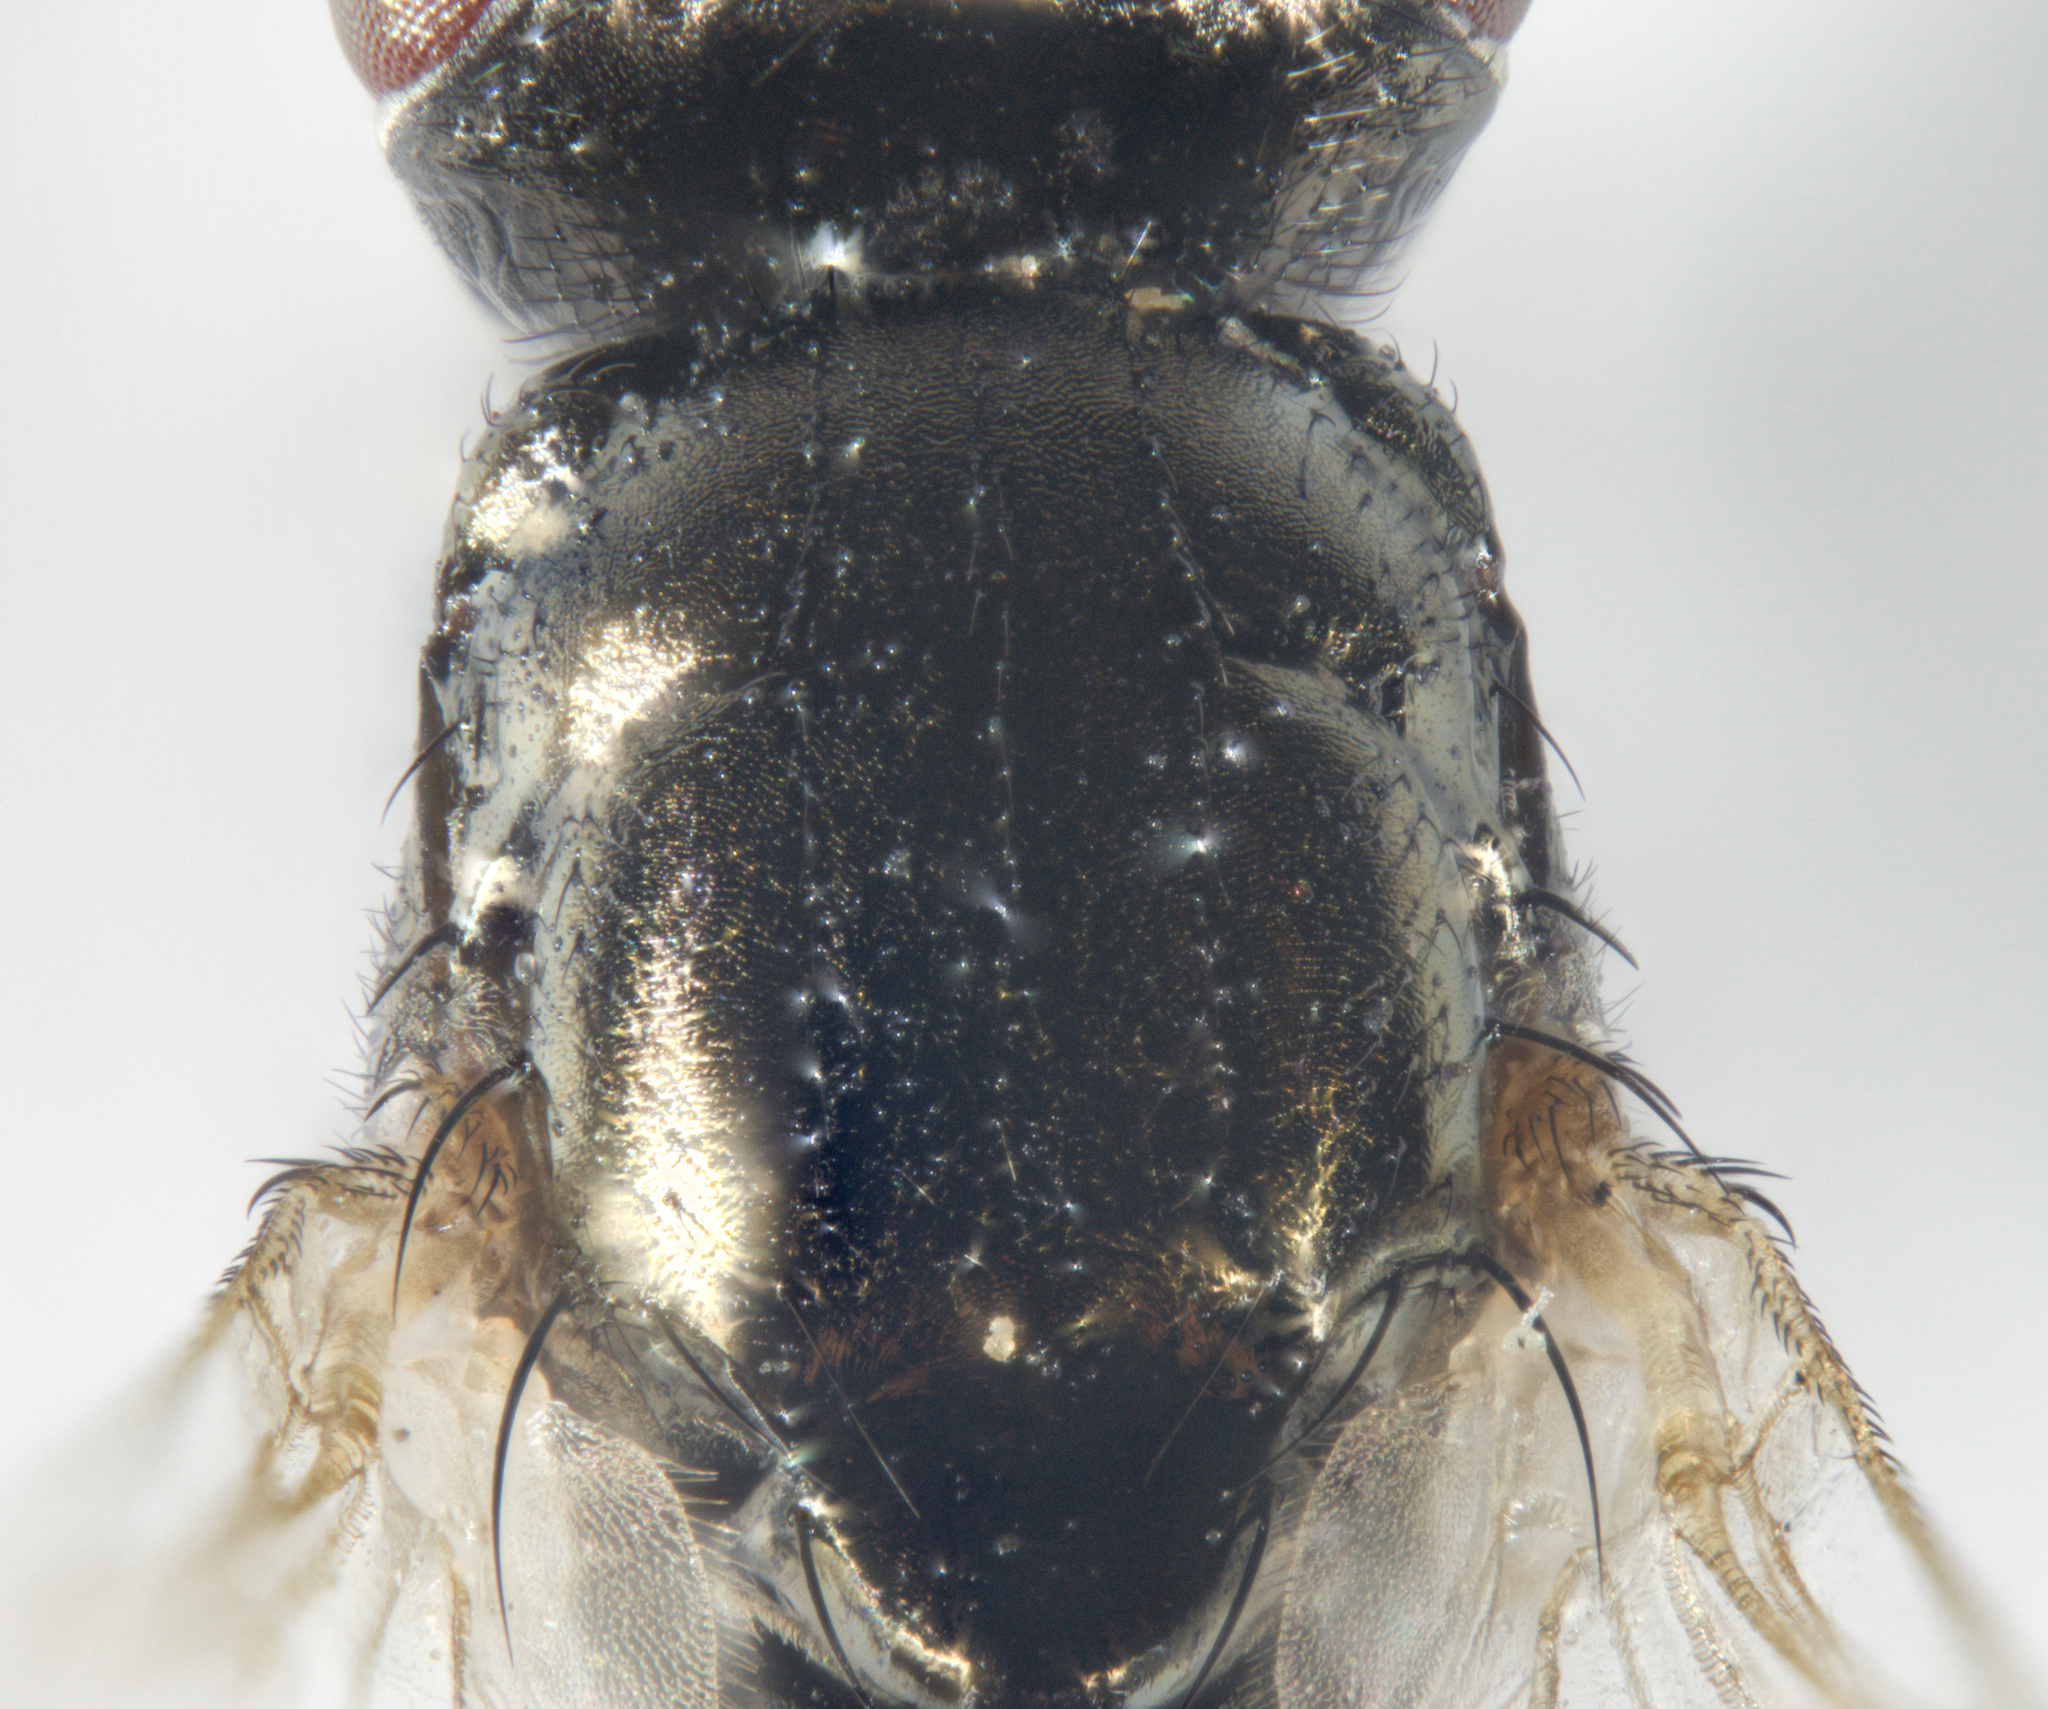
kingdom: Animalia
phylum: Arthropoda
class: Insecta
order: Diptera
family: Piophilidae
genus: Piophila
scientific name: Piophila casei
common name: Cheese skipper
